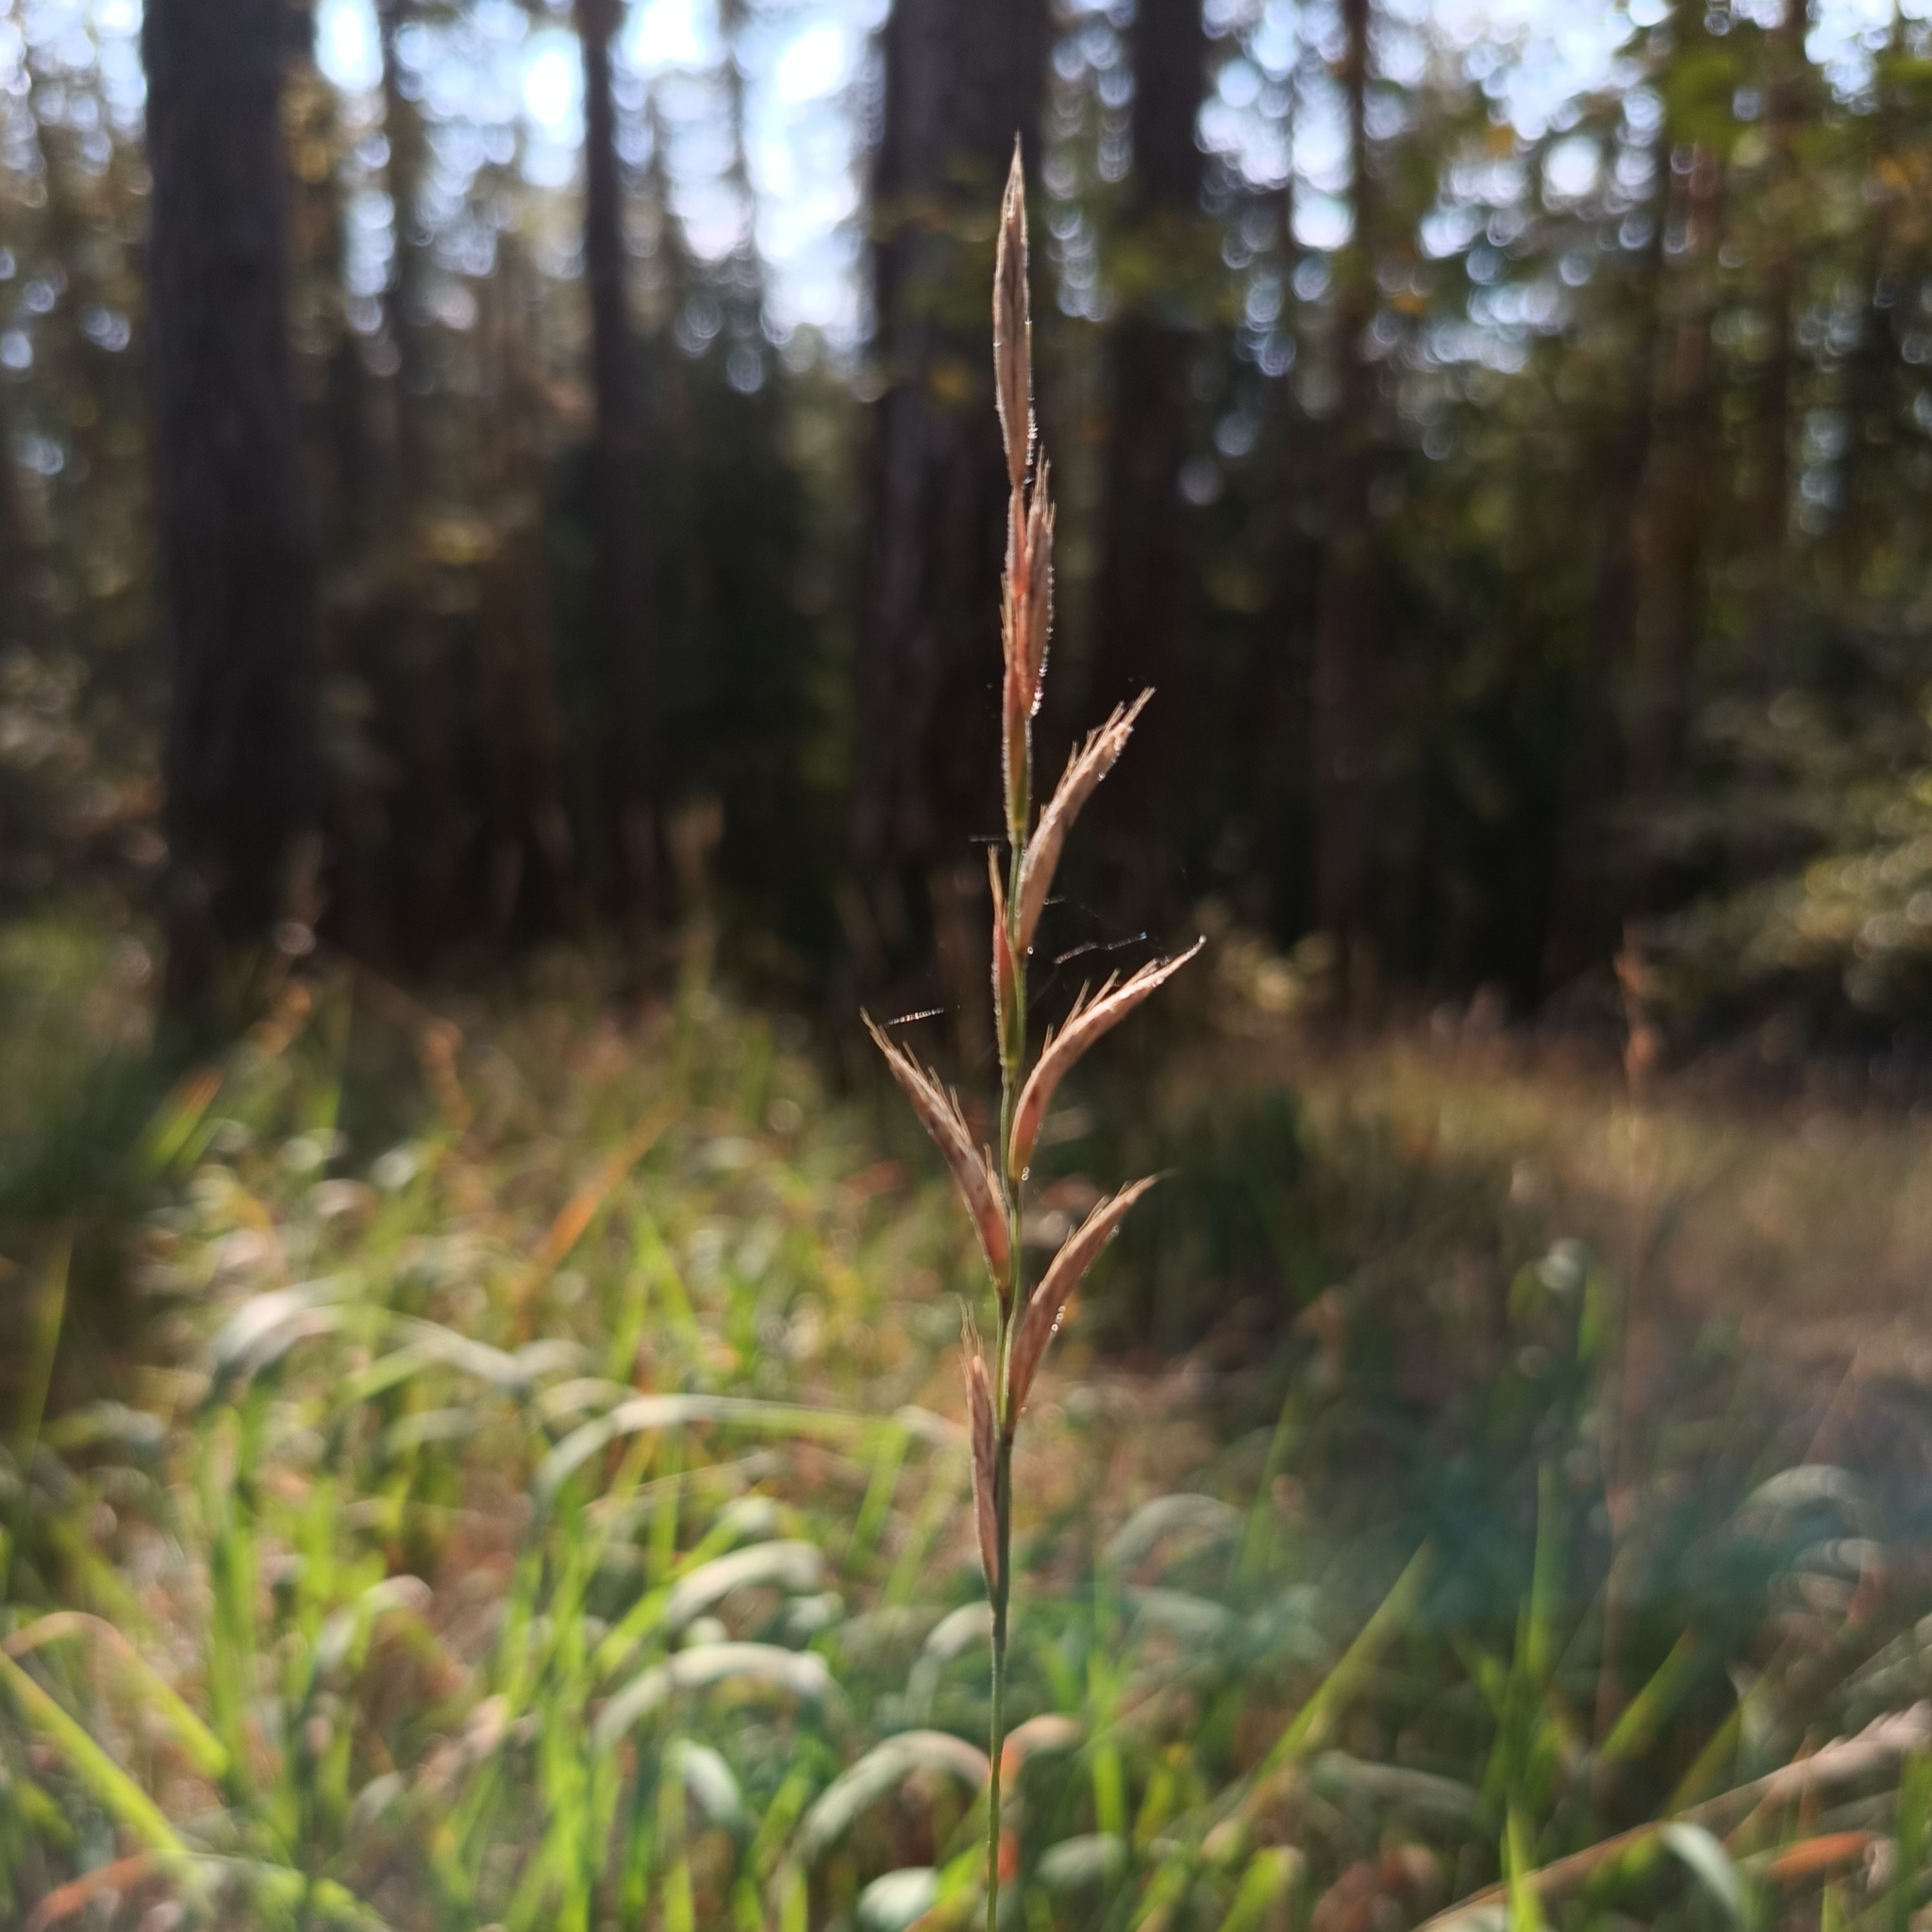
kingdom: Plantae
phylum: Tracheophyta
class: Liliopsida
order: Poales
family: Poaceae
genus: Brachypodium
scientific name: Brachypodium pinnatum
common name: Tor grass
